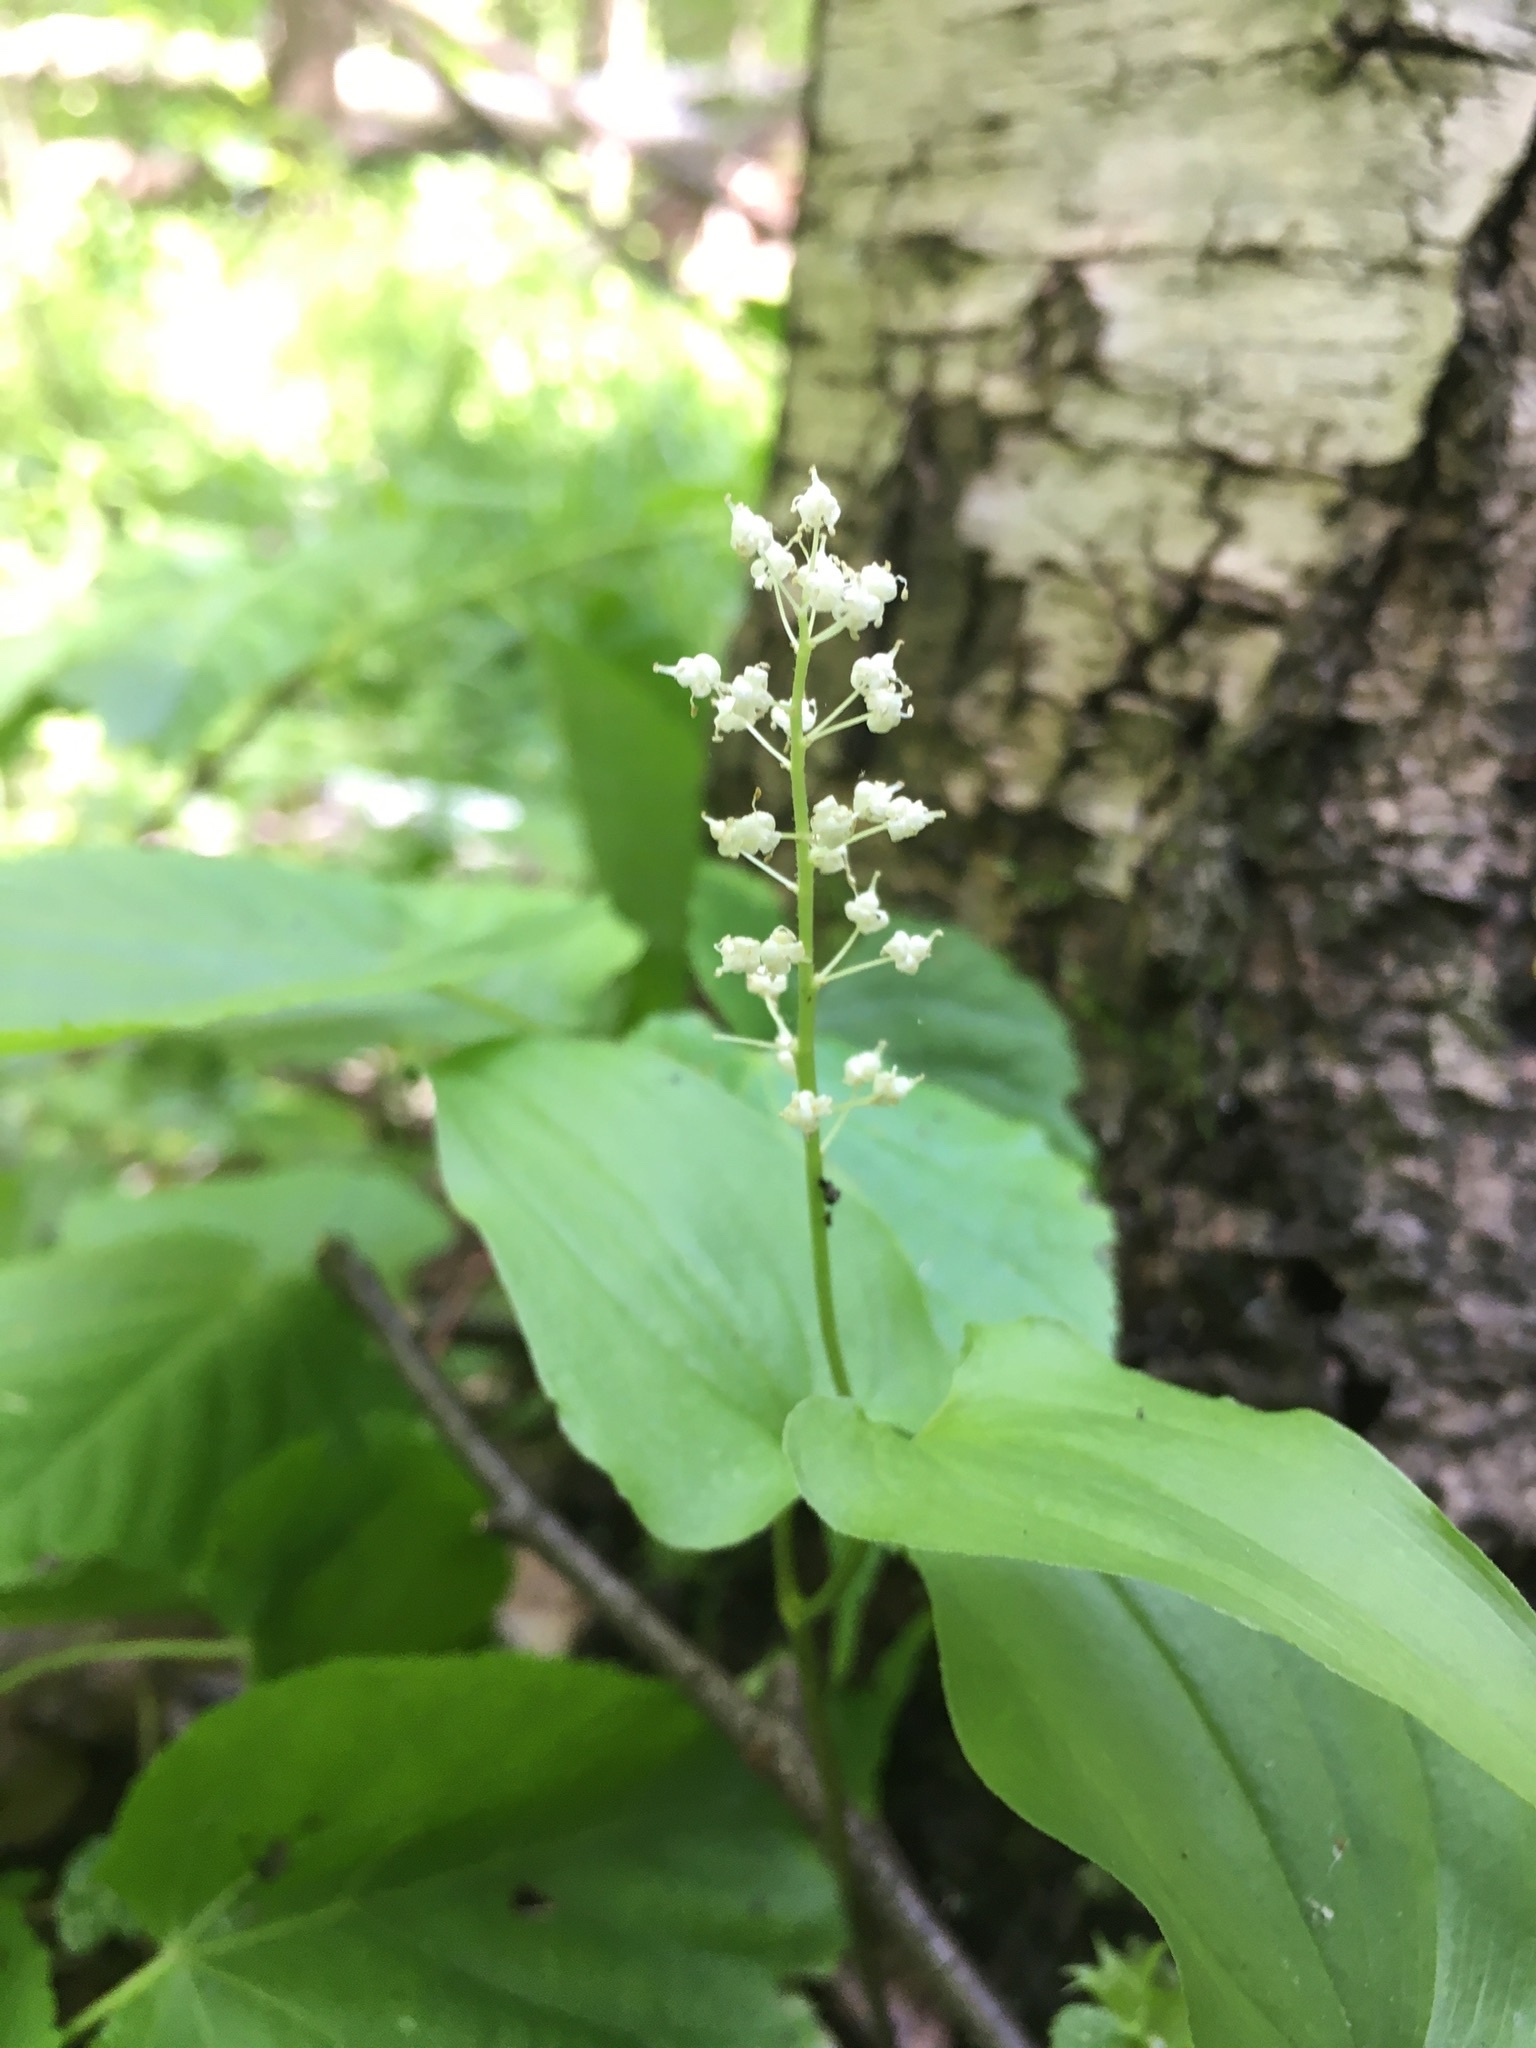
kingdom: Plantae
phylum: Tracheophyta
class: Liliopsida
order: Asparagales
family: Asparagaceae
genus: Maianthemum
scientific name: Maianthemum bifolium
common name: May lily
